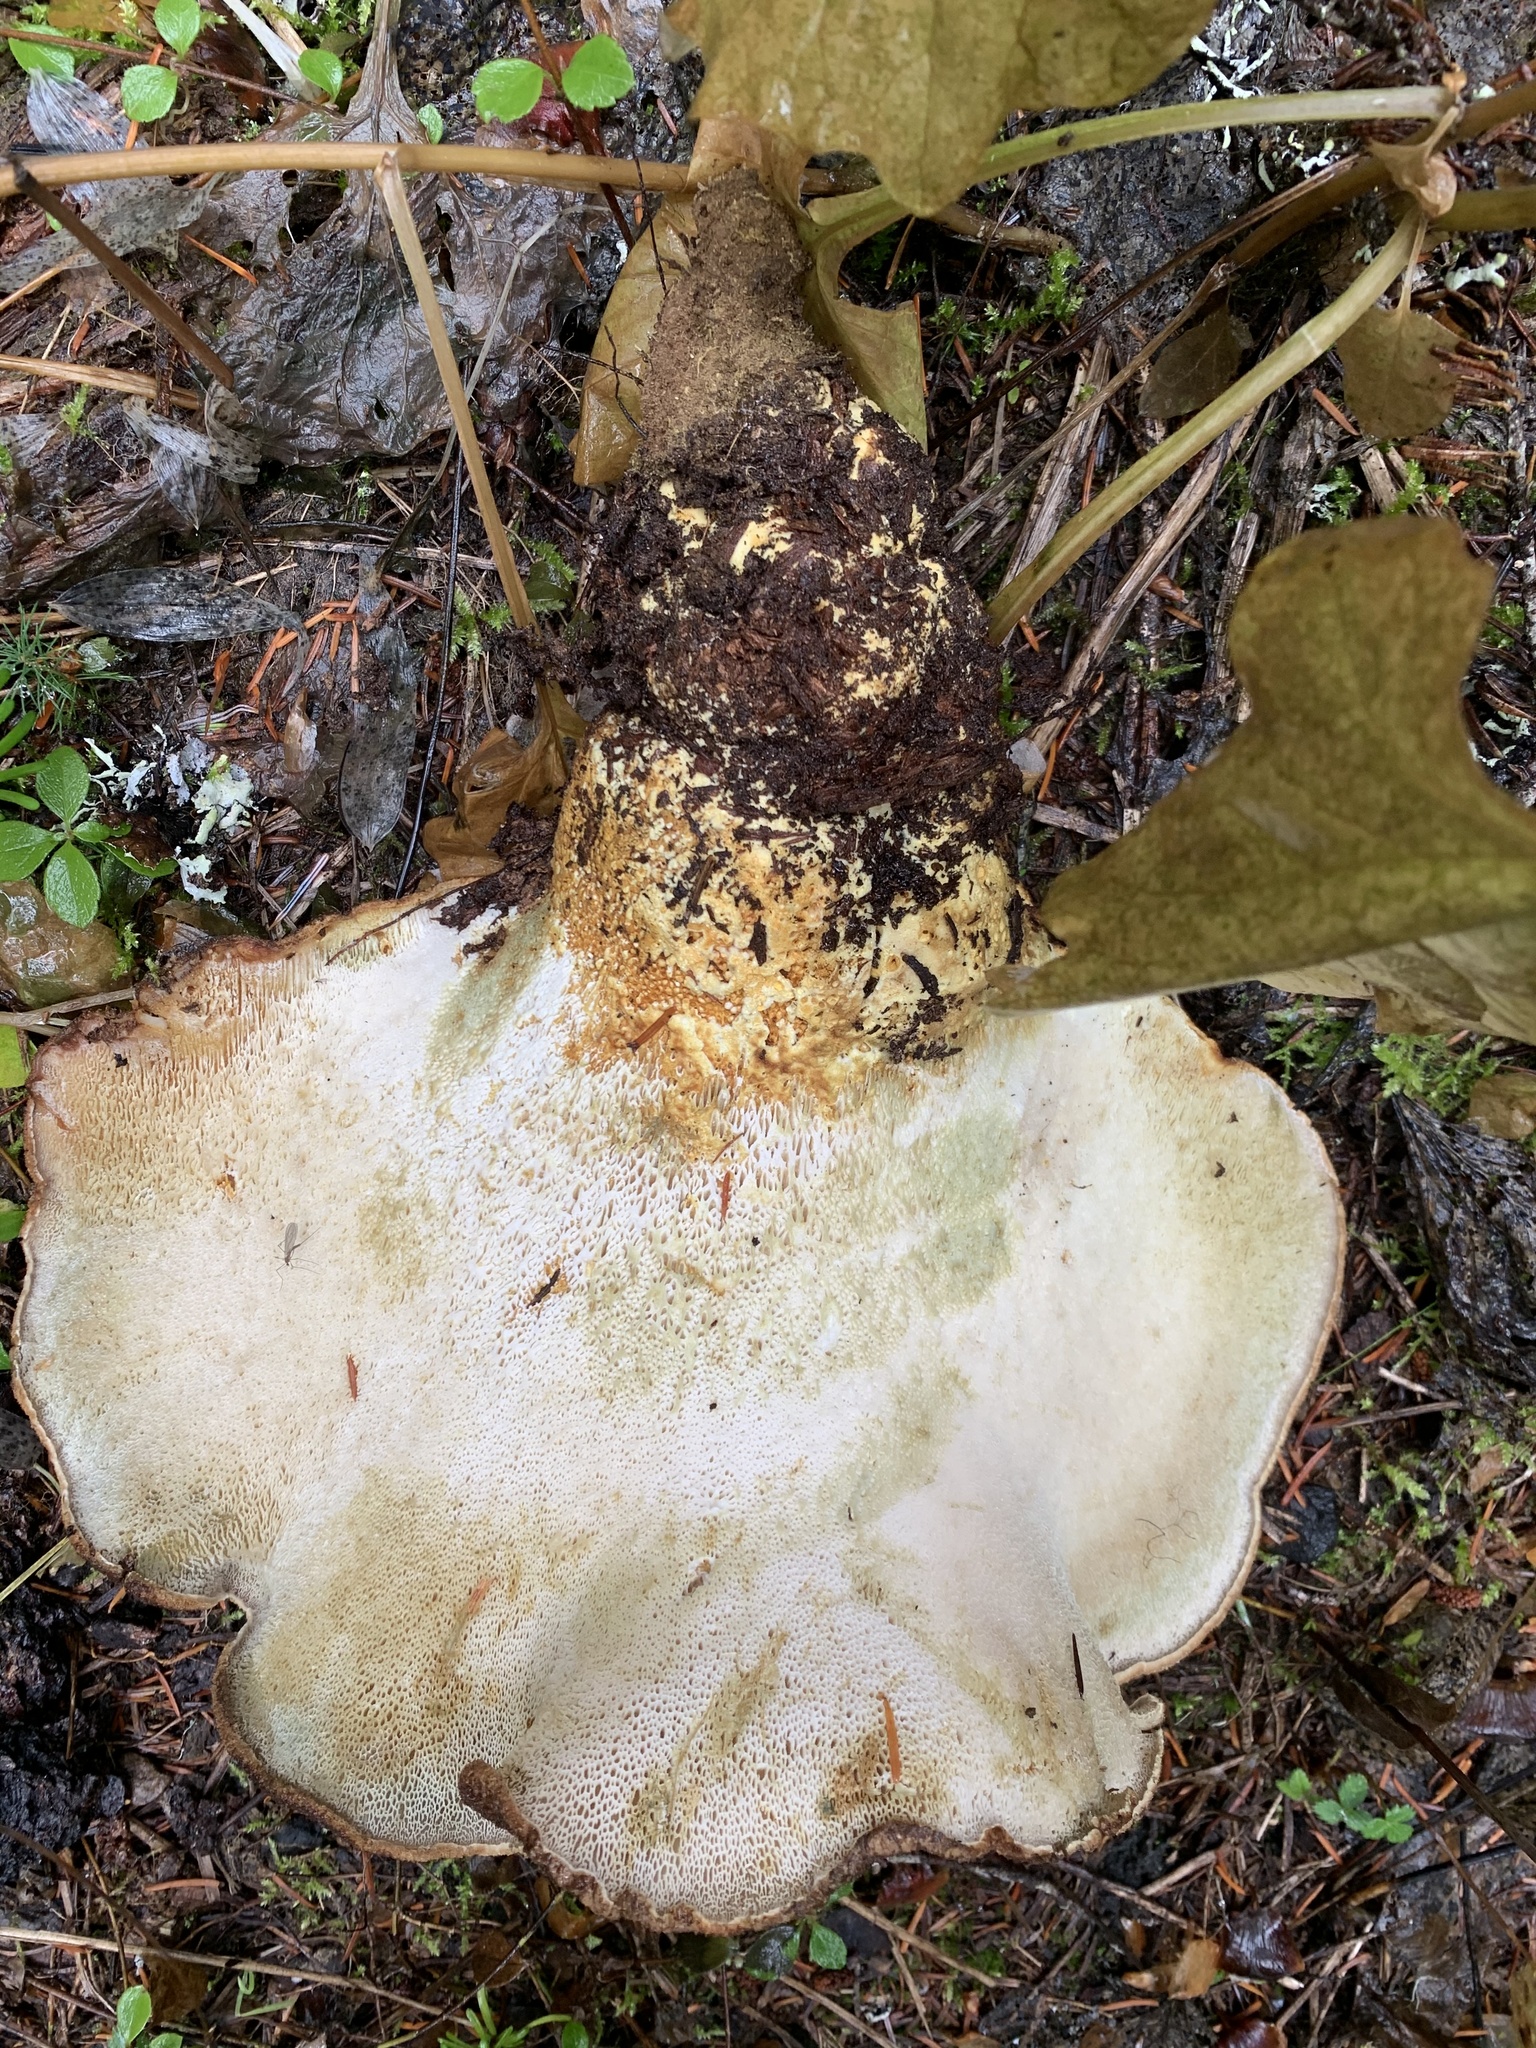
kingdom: Fungi
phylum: Basidiomycota
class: Agaricomycetes
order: Russulales
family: Albatrellaceae
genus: Albatrellopsis
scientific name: Albatrellopsis ellisii
